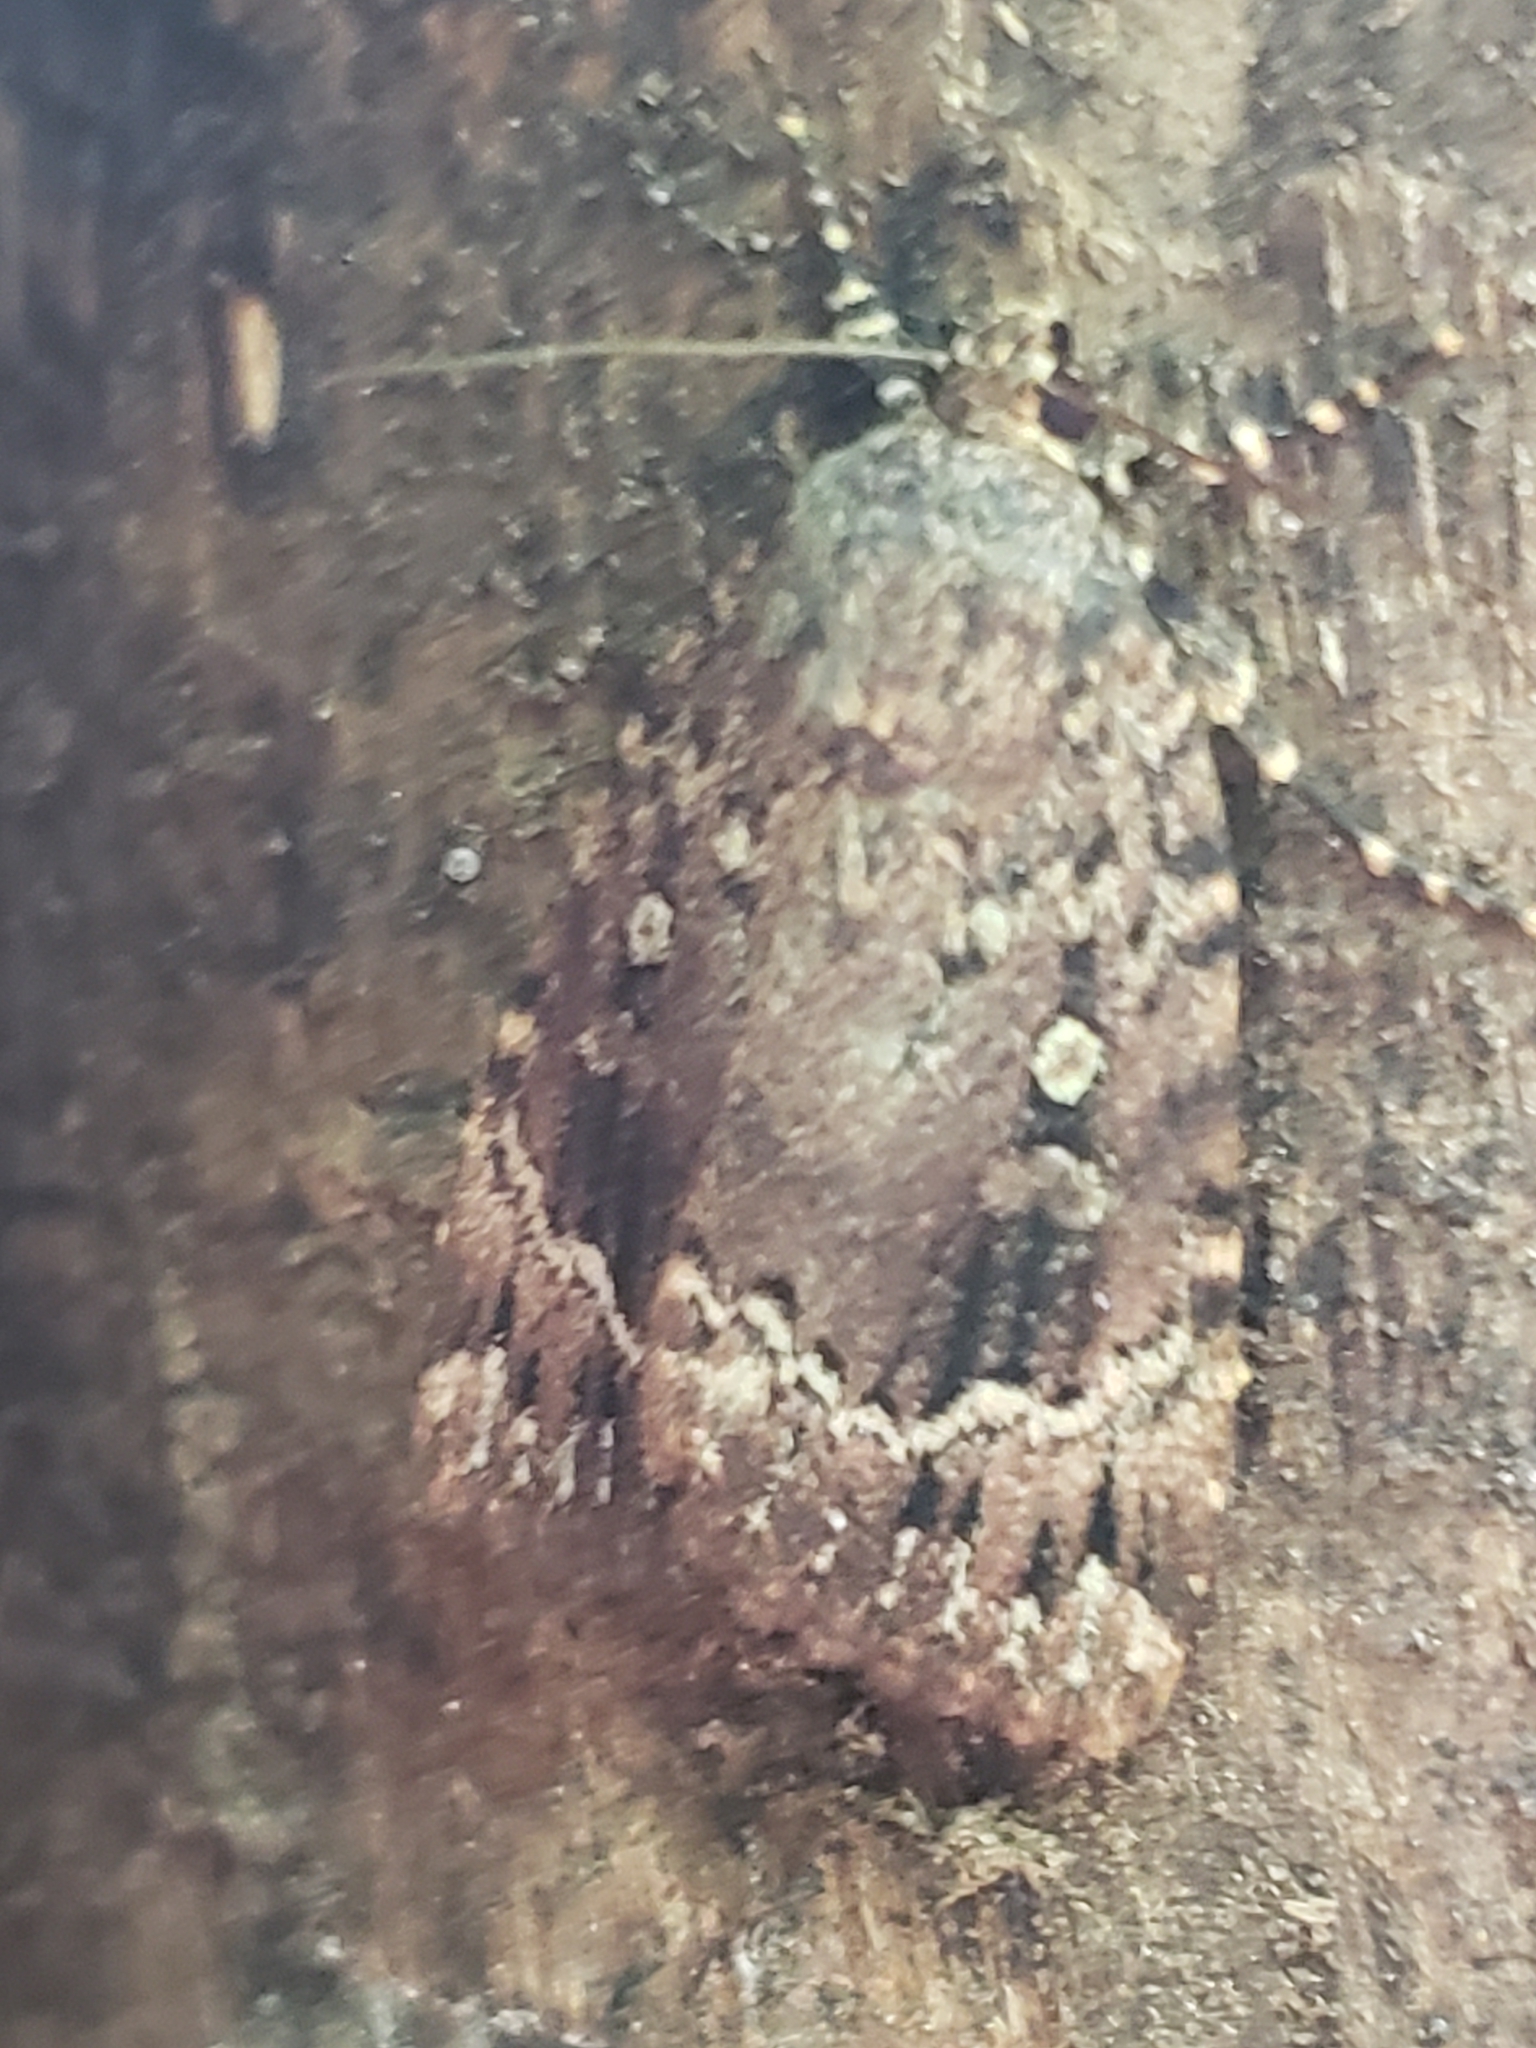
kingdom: Animalia
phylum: Arthropoda
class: Insecta
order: Lepidoptera
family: Noctuidae
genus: Amphipyra
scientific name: Amphipyra pyramidoides
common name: American copper underwing
